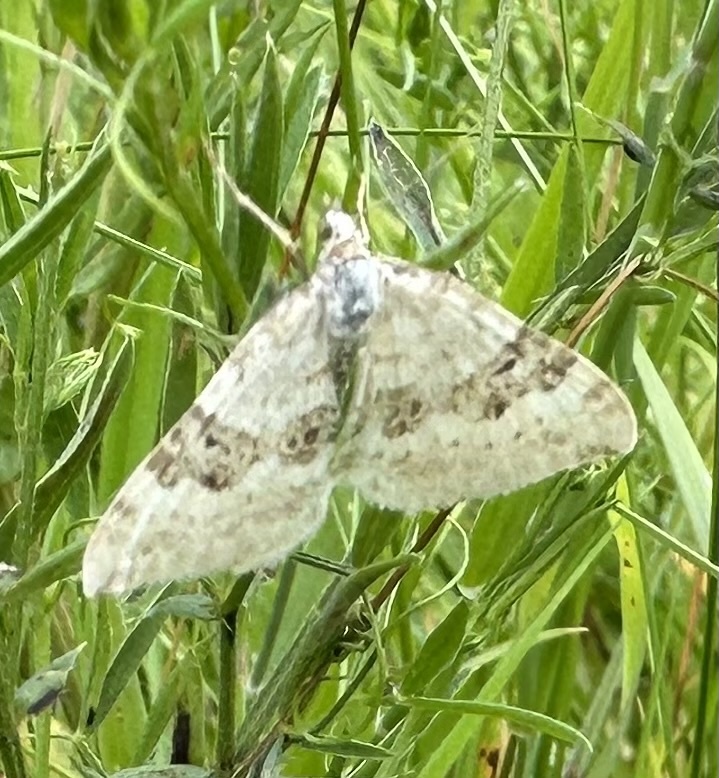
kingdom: Animalia
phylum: Arthropoda
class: Insecta
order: Lepidoptera
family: Geometridae
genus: Xanthorhoe
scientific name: Xanthorhoe montanata
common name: Silver-ground carpet
